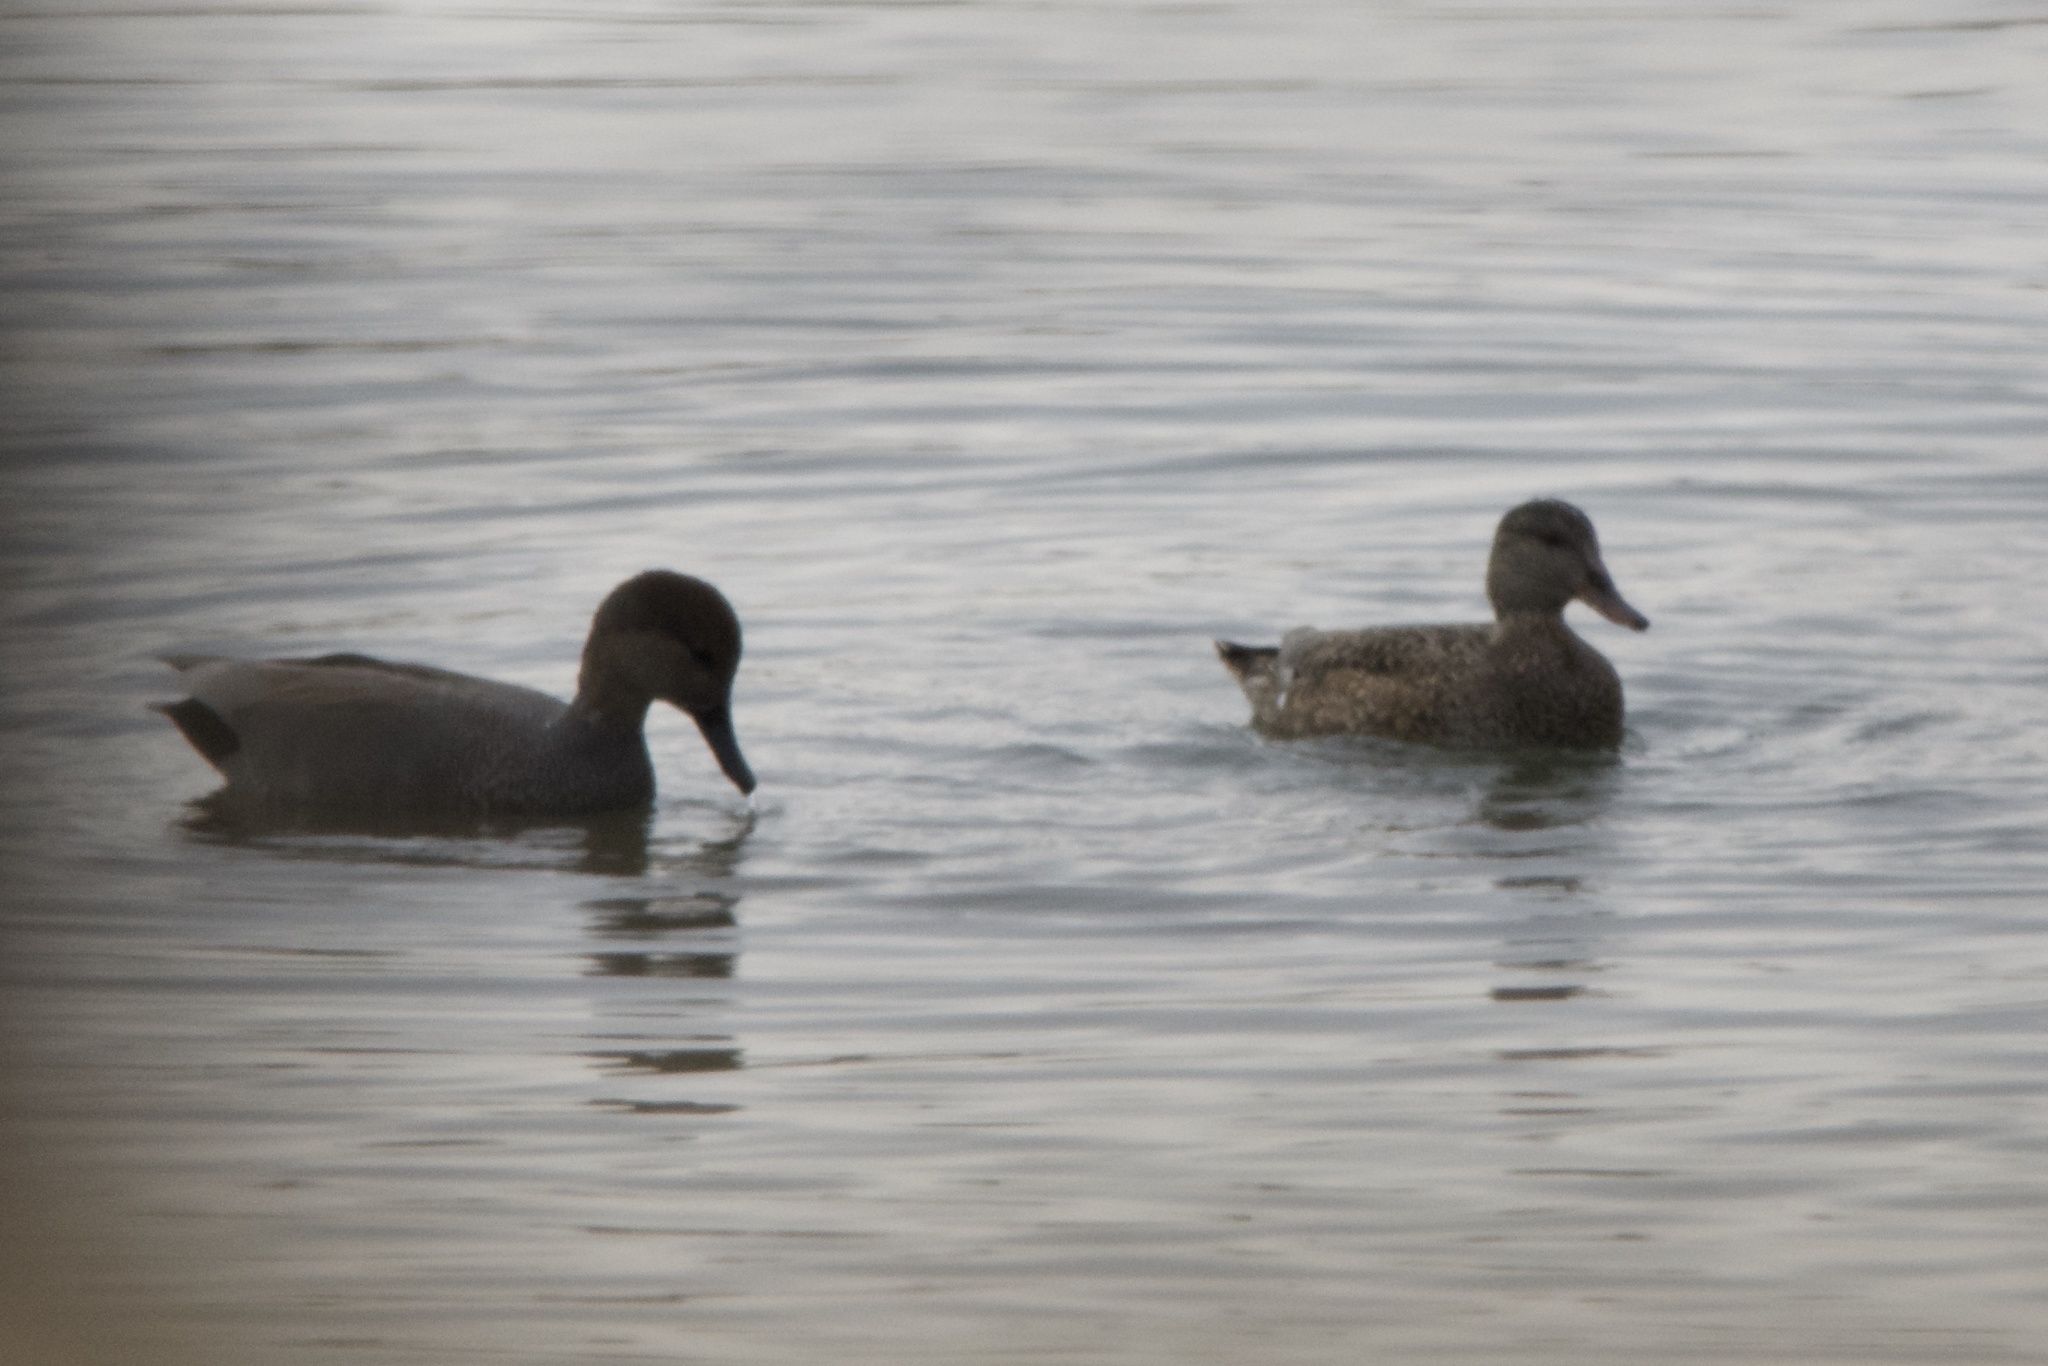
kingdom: Animalia
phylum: Chordata
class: Aves
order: Anseriformes
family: Anatidae
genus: Mareca
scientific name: Mareca strepera
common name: Gadwall
